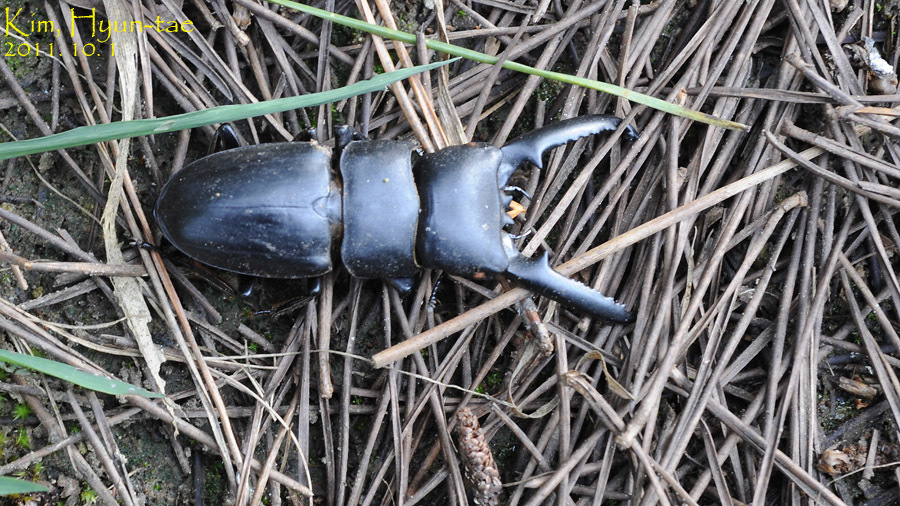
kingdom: Animalia
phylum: Arthropoda
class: Insecta
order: Coleoptera
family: Lucanidae
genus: Serrognathus
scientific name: Serrognathus titanus
